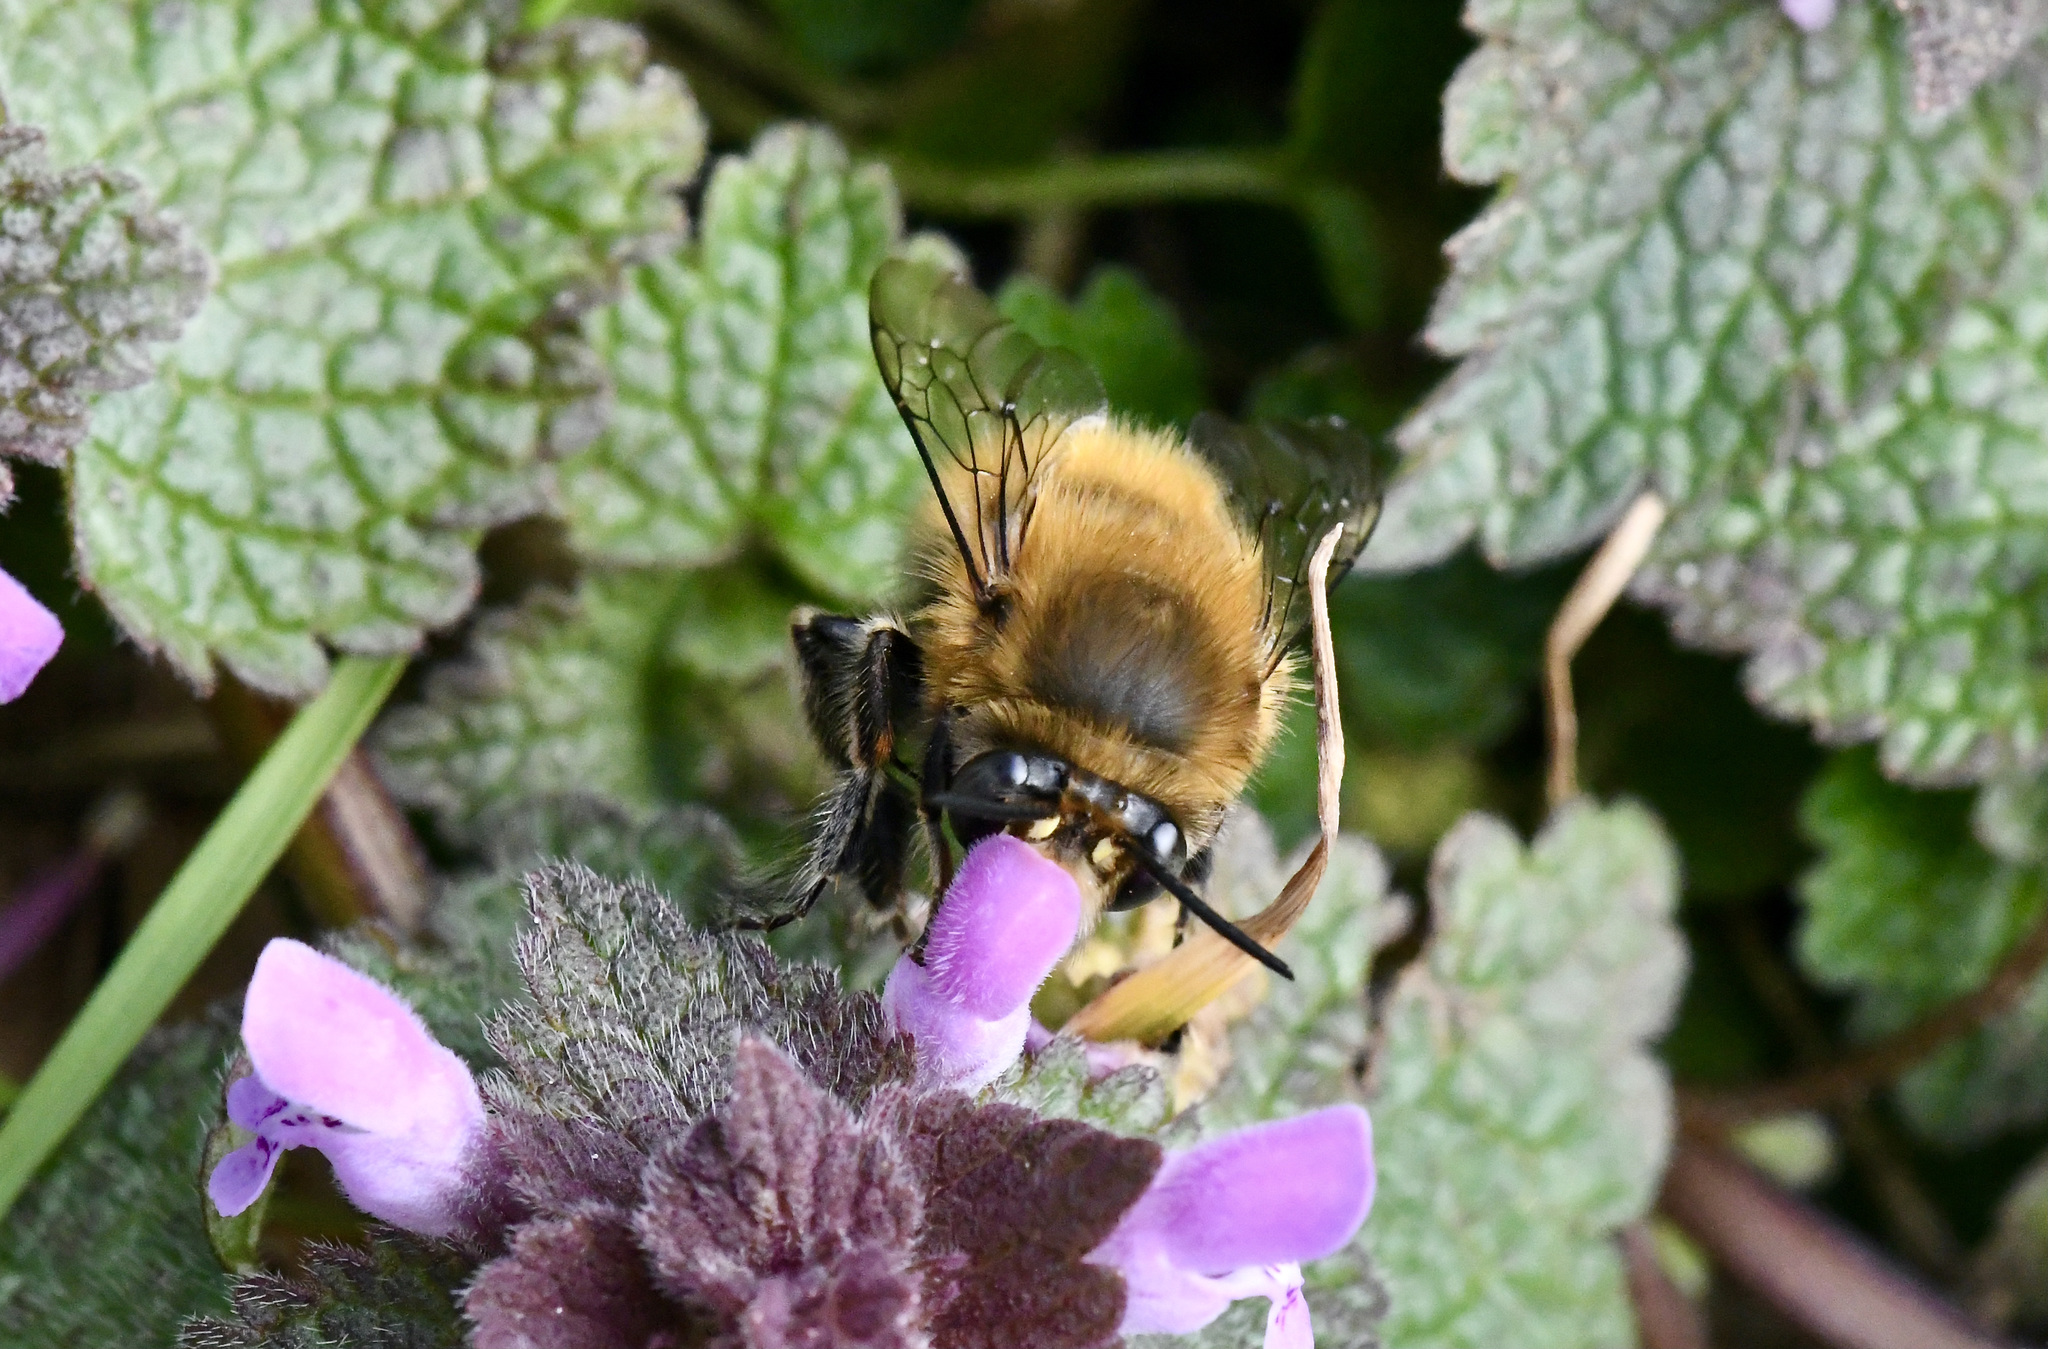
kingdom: Animalia
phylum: Arthropoda
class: Insecta
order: Hymenoptera
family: Apidae
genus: Anthophora
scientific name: Anthophora plumipes
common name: Hairy-footed flower bee
